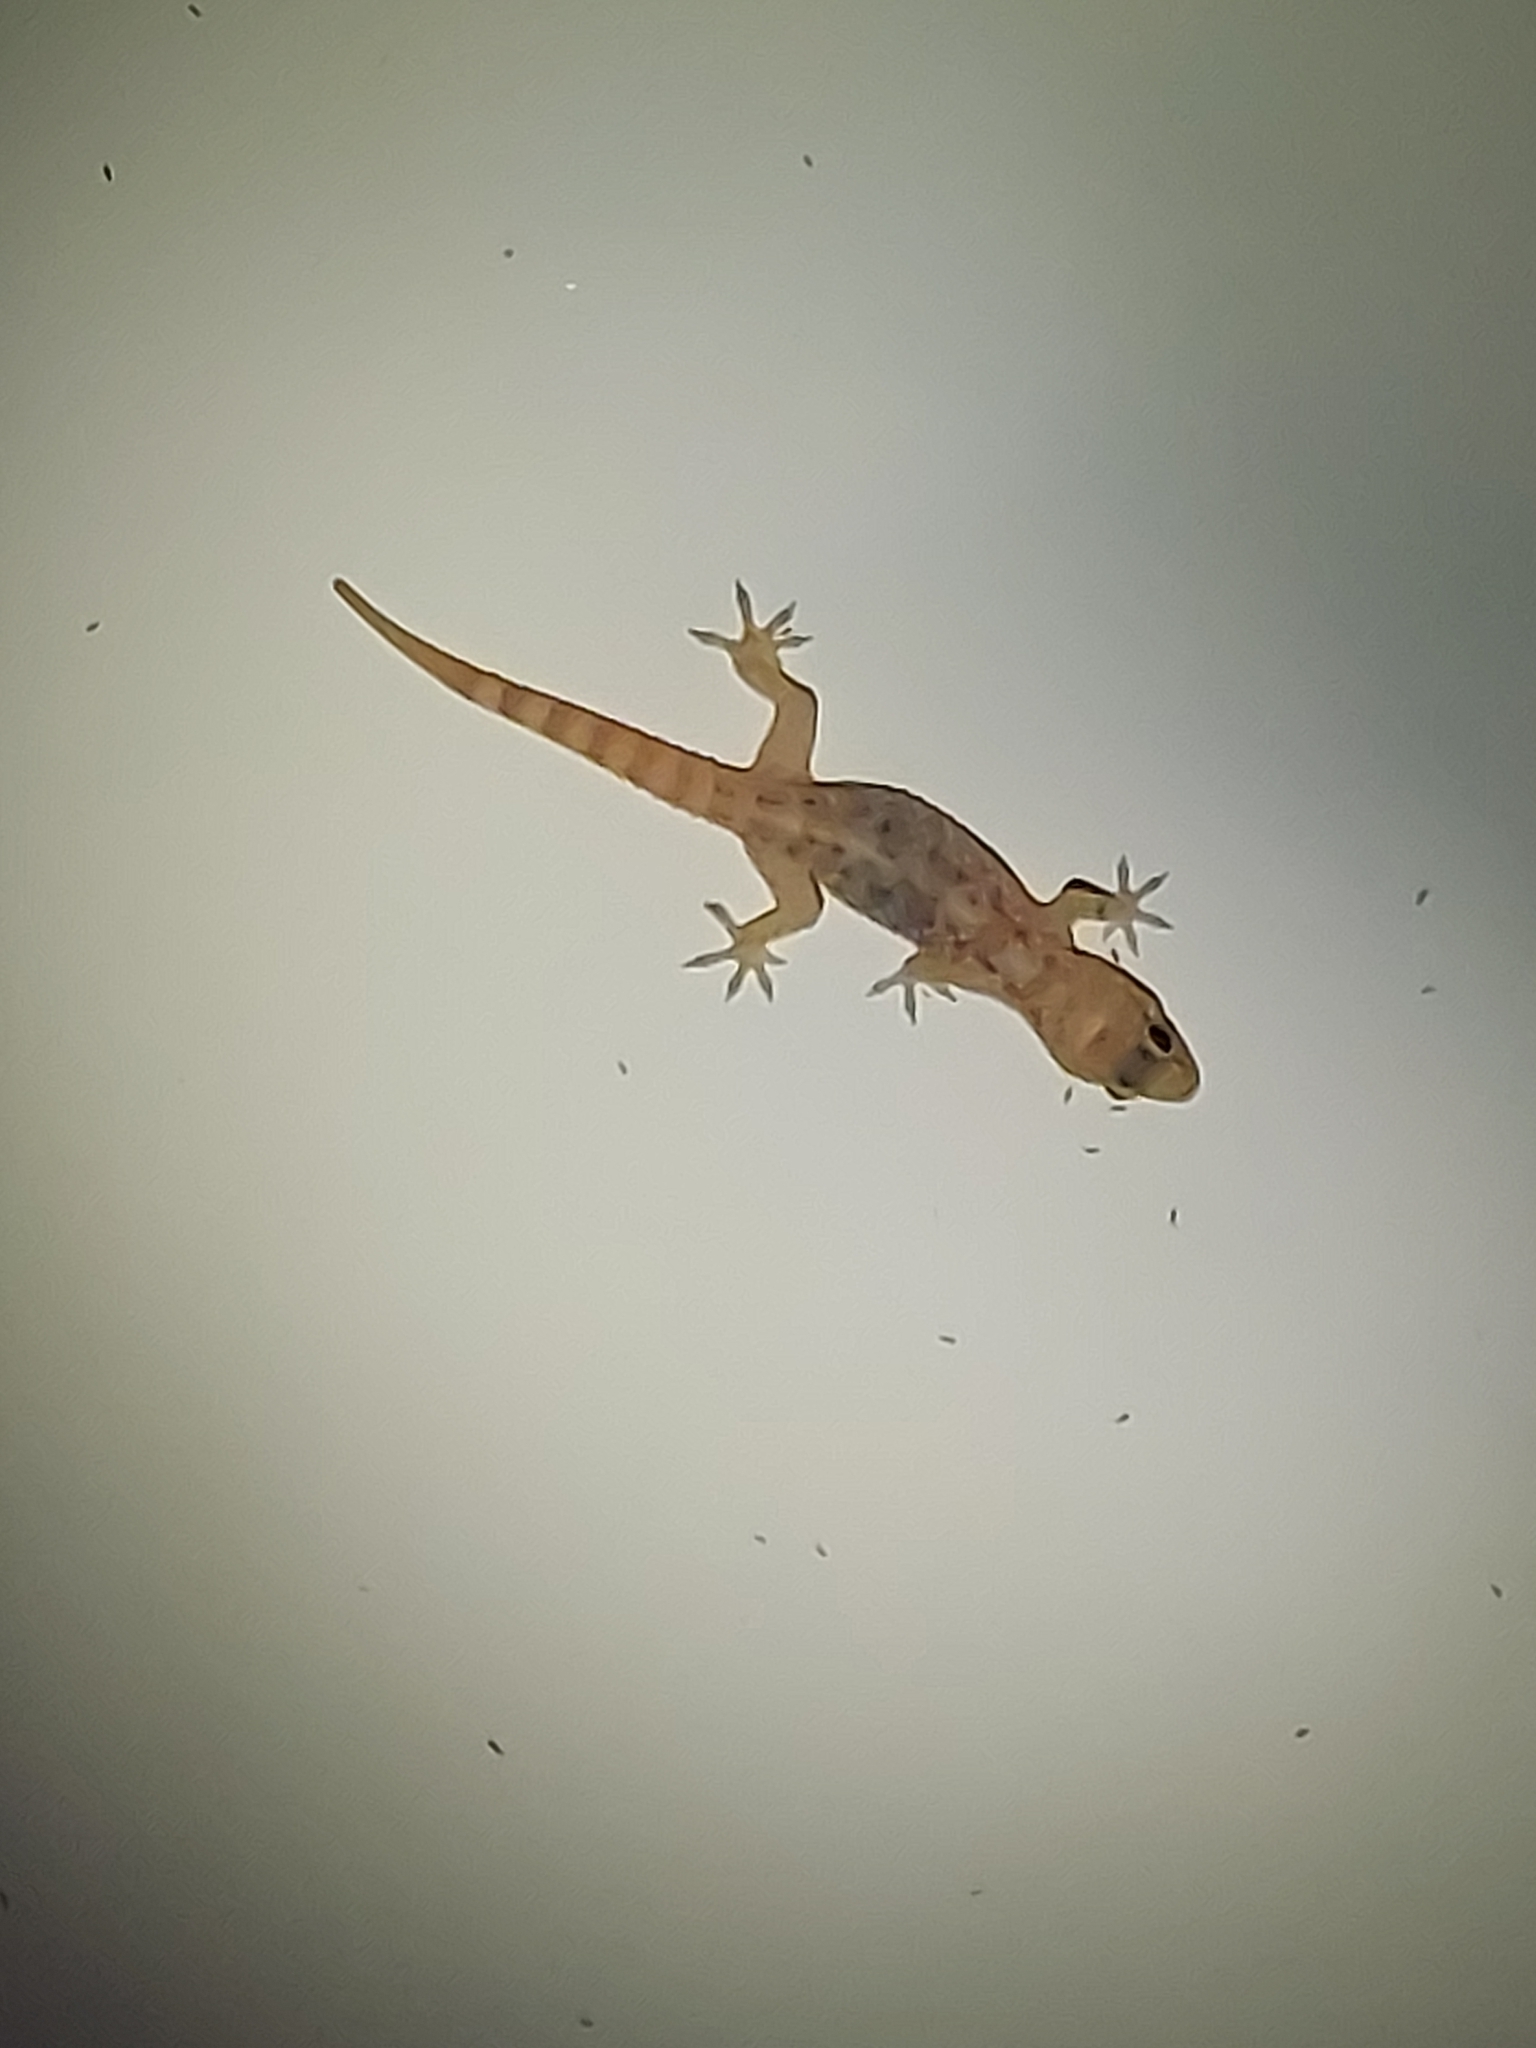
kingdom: Animalia
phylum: Chordata
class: Squamata
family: Gekkonidae
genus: Hemidactylus
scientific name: Hemidactylus turcicus
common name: Turkish gecko
